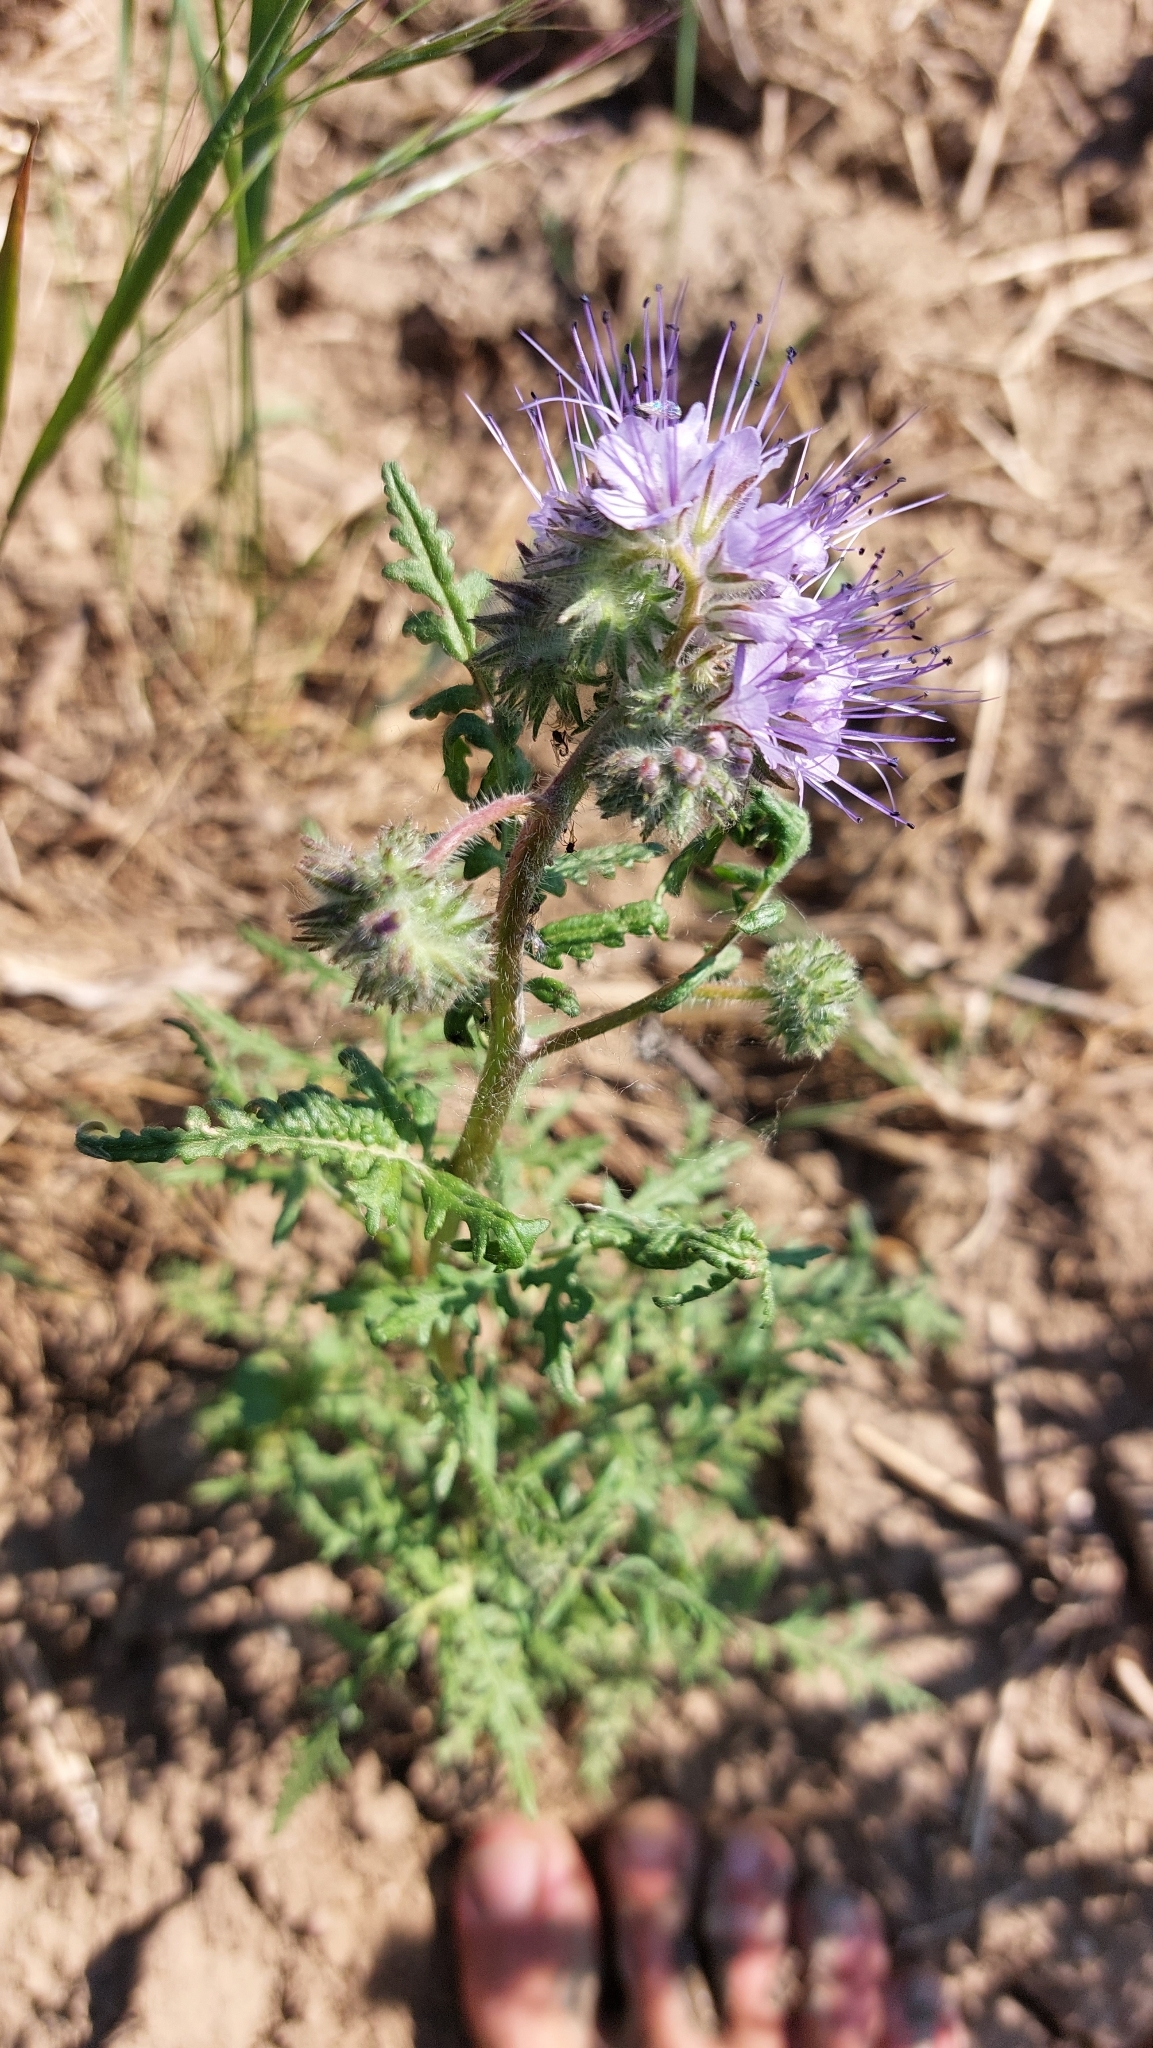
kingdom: Plantae
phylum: Tracheophyta
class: Magnoliopsida
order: Boraginales
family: Hydrophyllaceae
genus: Phacelia
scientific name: Phacelia tanacetifolia
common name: Phacelia
